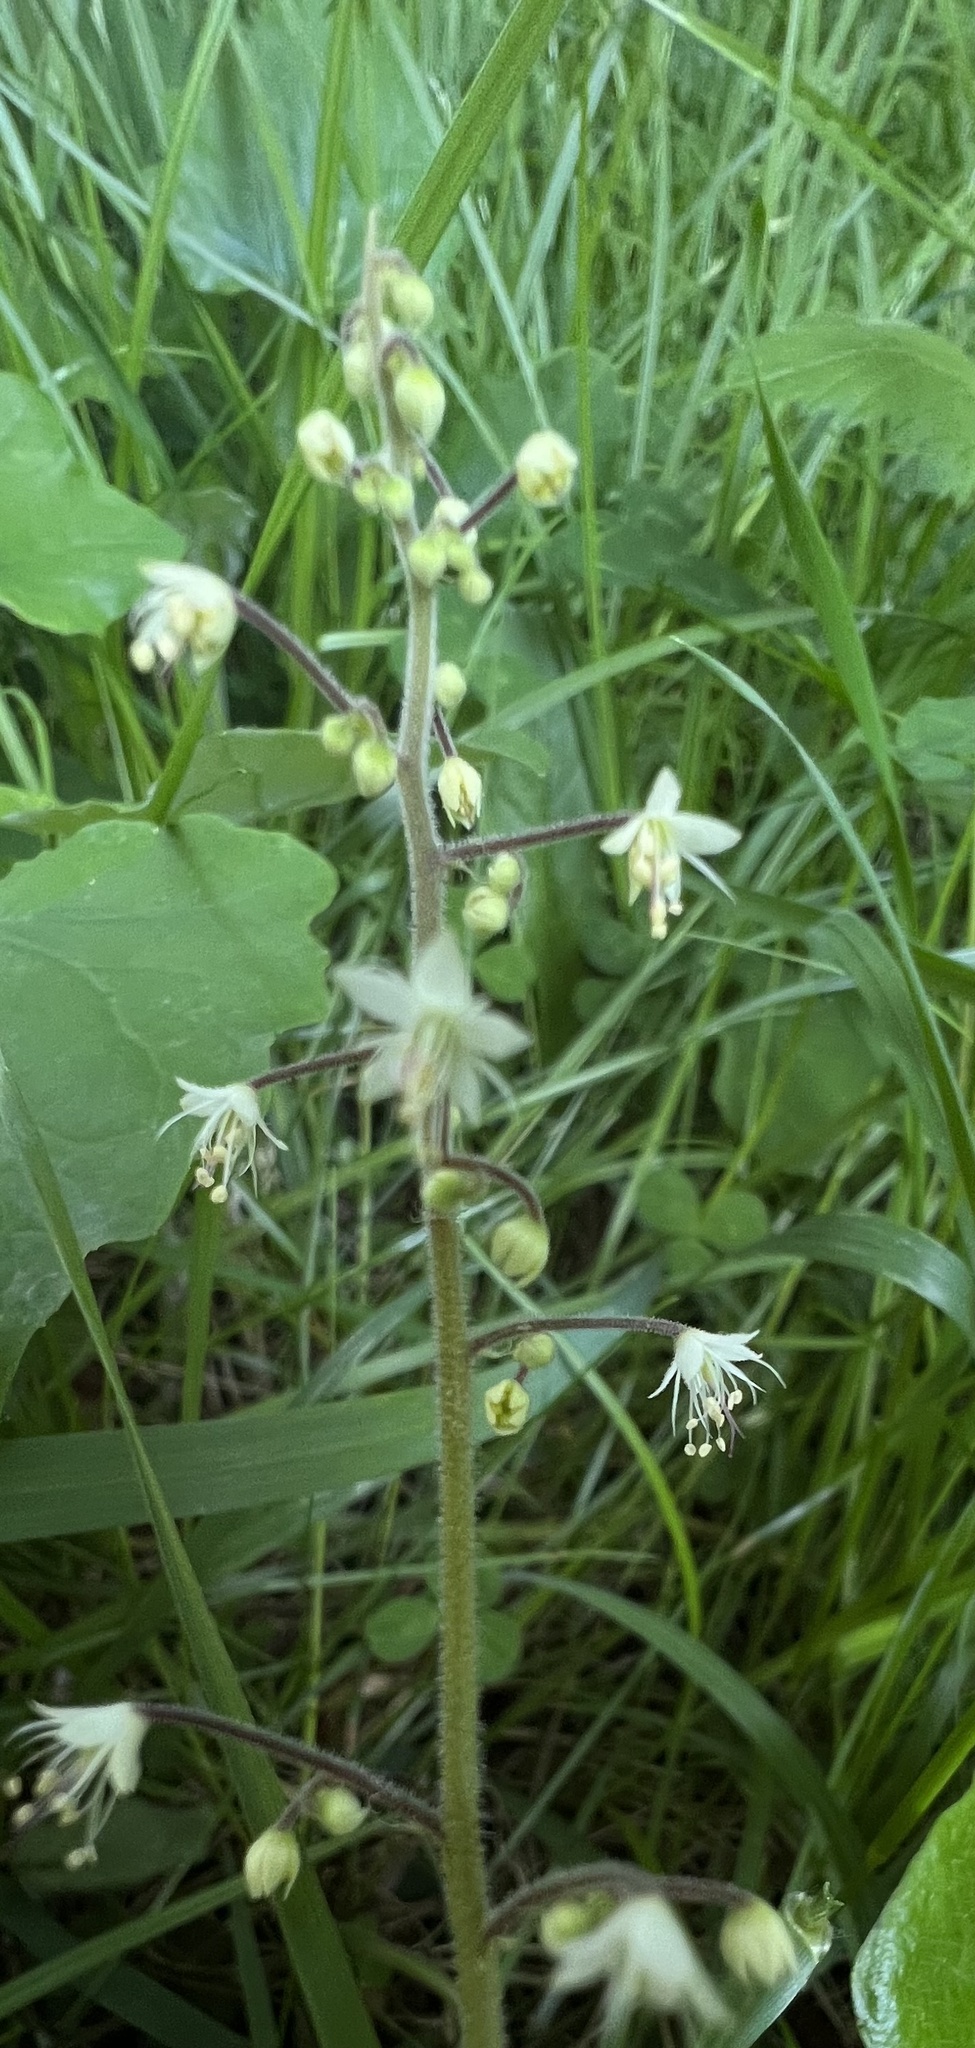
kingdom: Plantae
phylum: Tracheophyta
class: Magnoliopsida
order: Saxifragales
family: Saxifragaceae
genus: Tiarella
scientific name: Tiarella trifoliata
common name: Sugar-scoop
